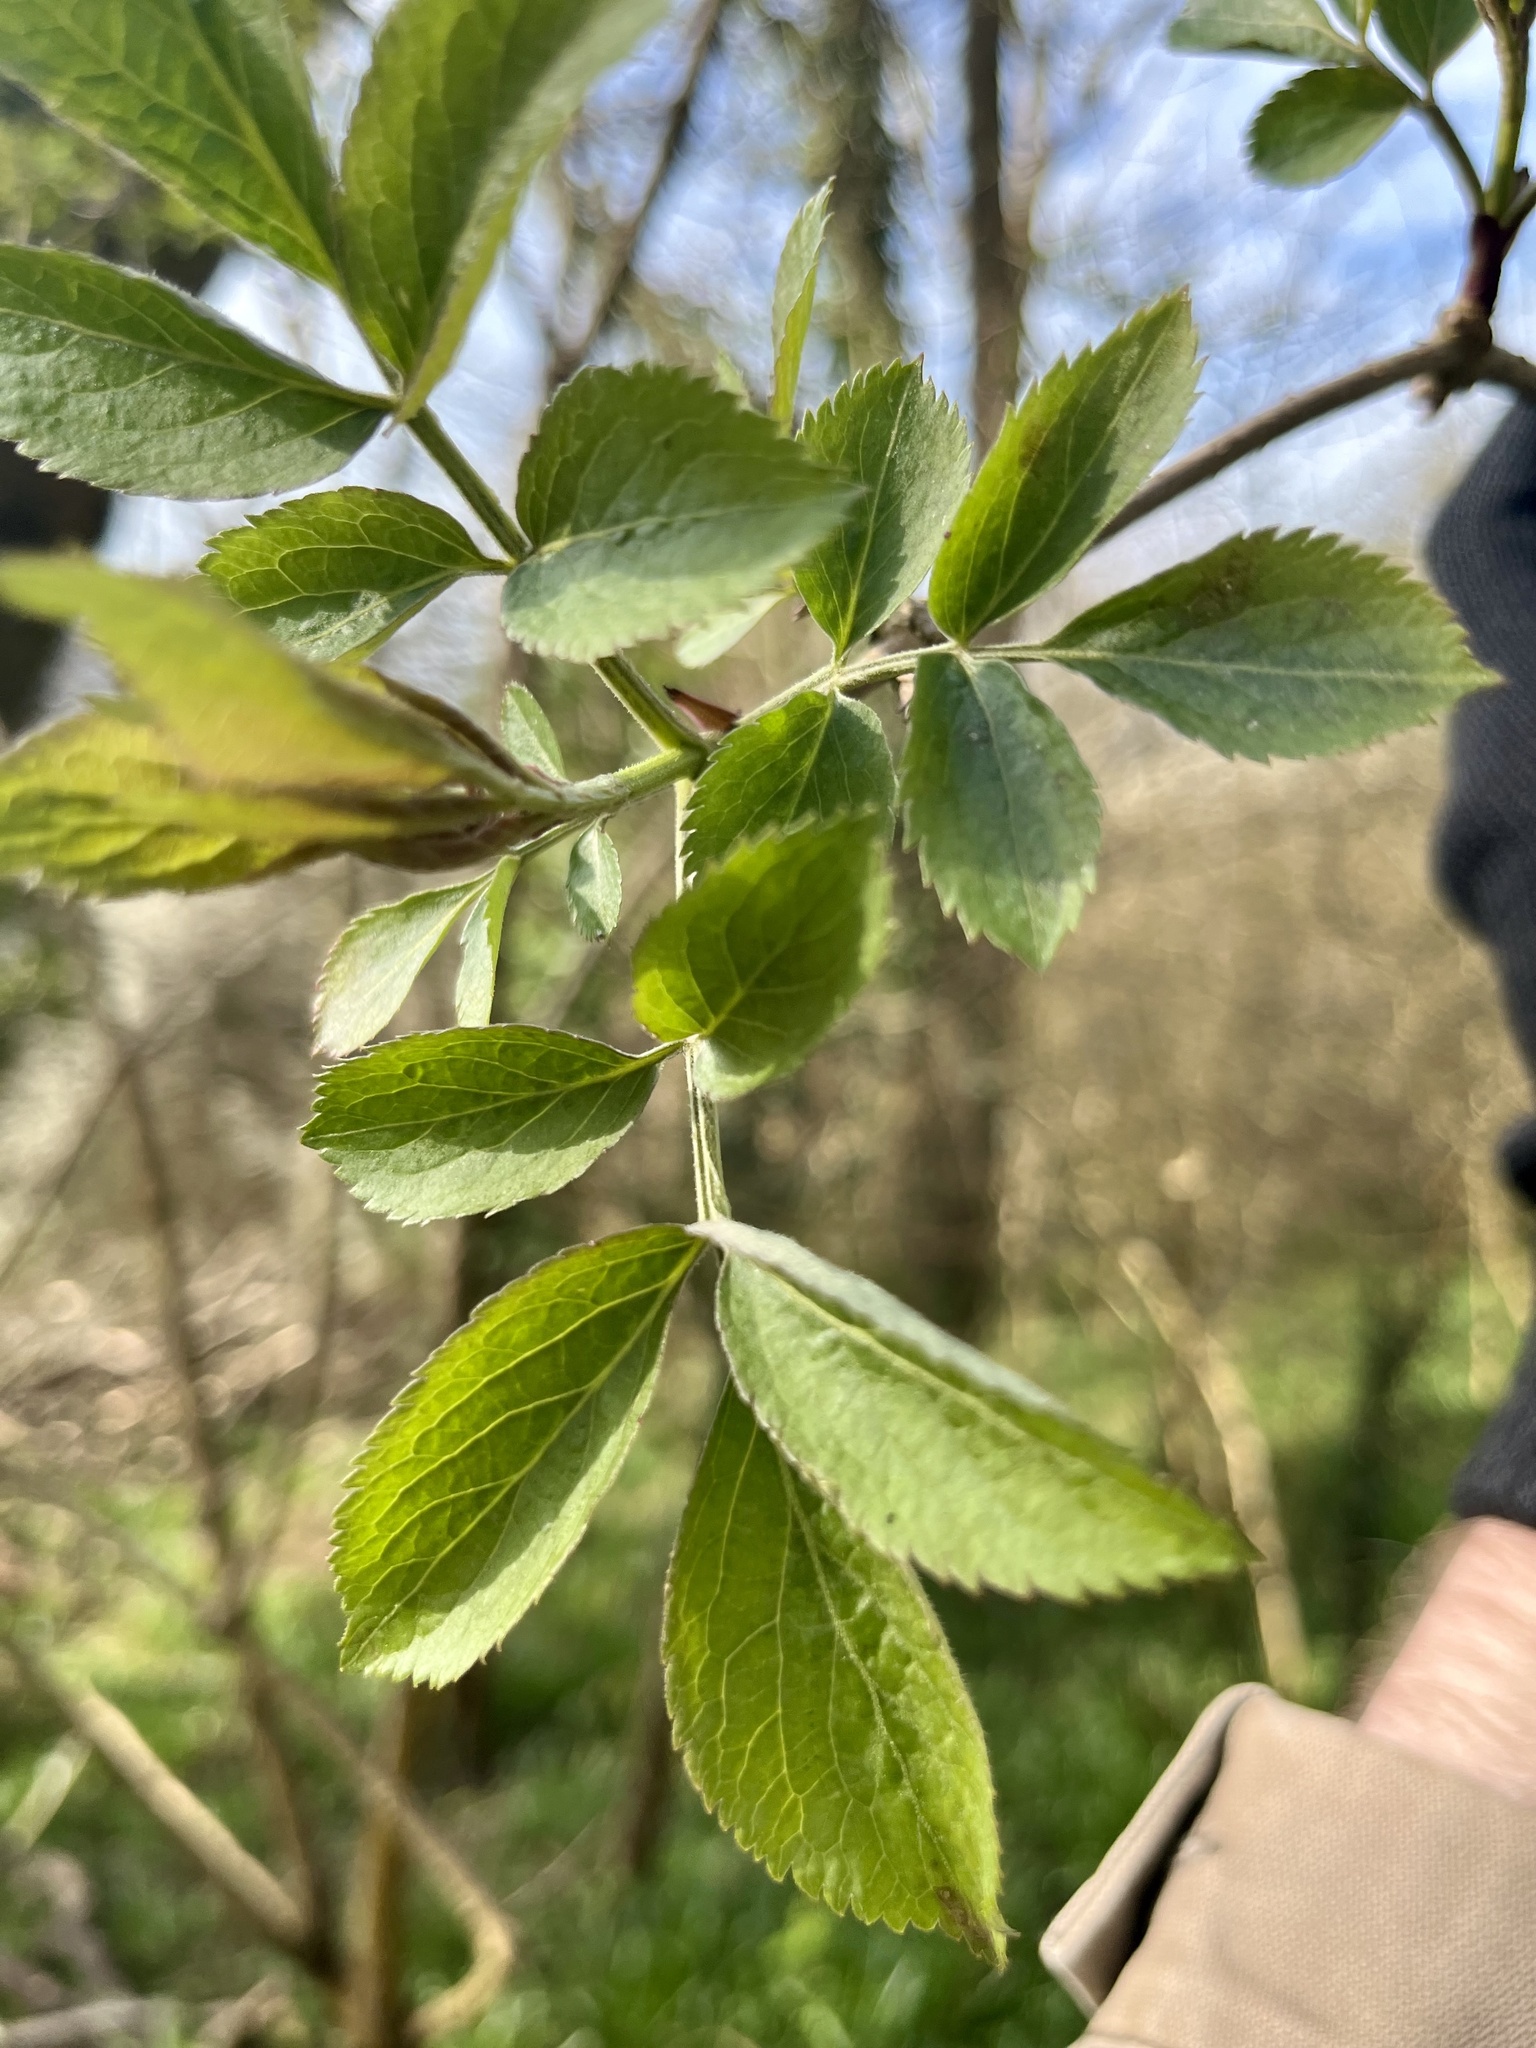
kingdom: Plantae
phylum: Tracheophyta
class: Magnoliopsida
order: Dipsacales
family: Viburnaceae
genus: Sambucus
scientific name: Sambucus nigra
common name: Elder
